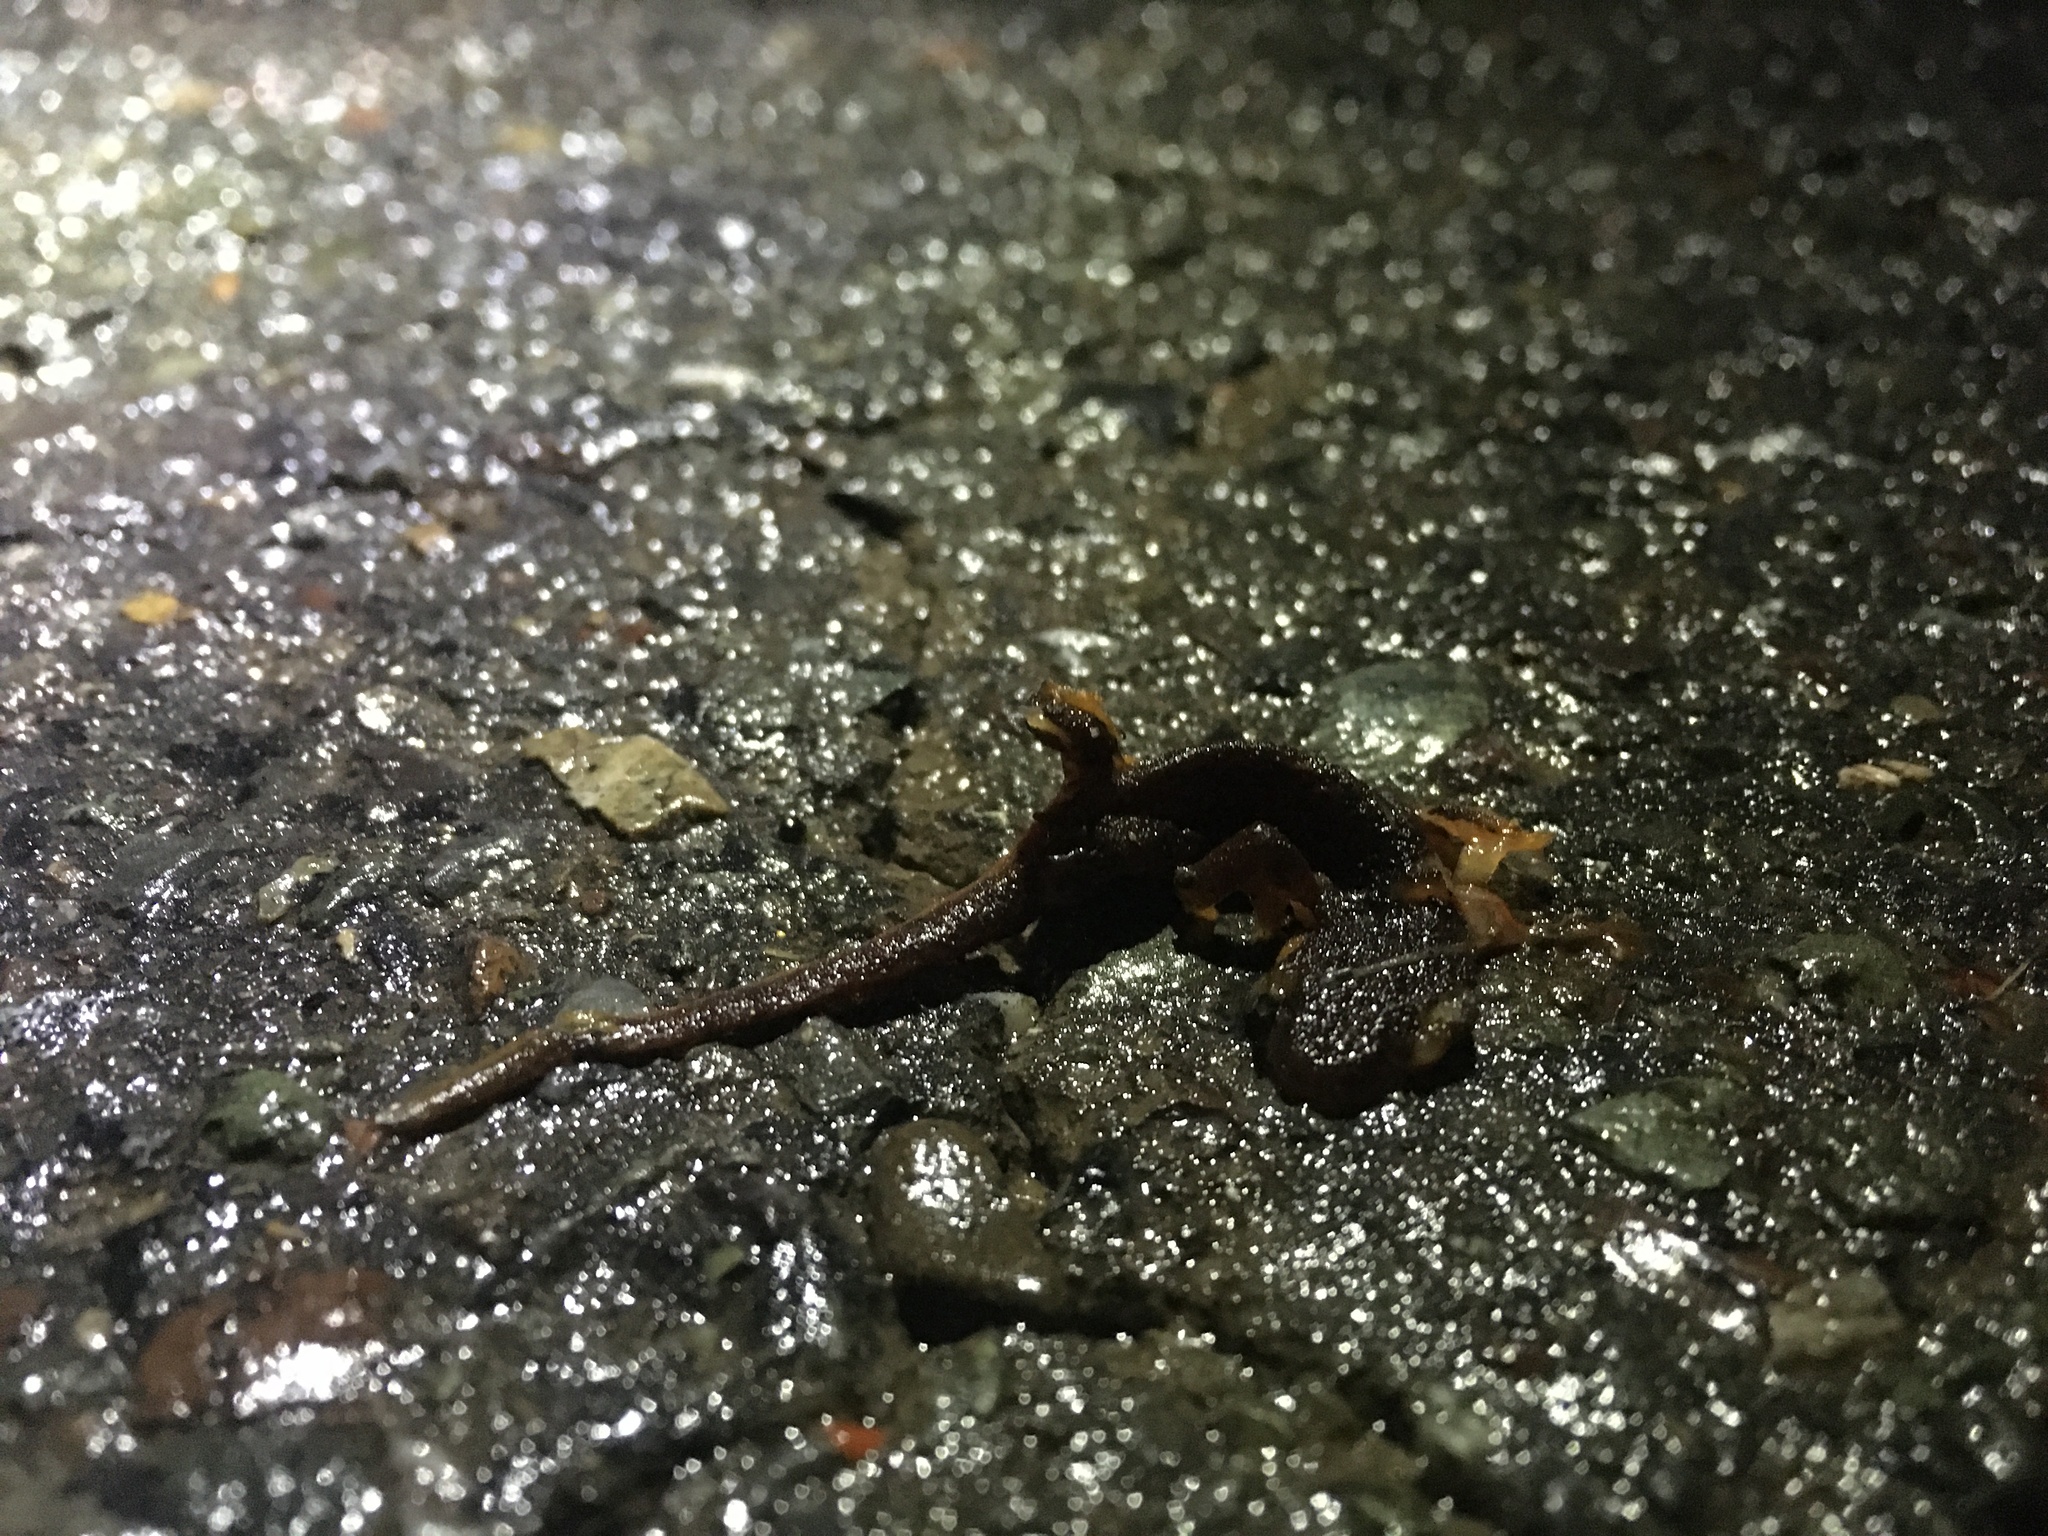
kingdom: Animalia
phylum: Chordata
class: Amphibia
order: Caudata
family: Salamandridae
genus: Taricha
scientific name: Taricha
